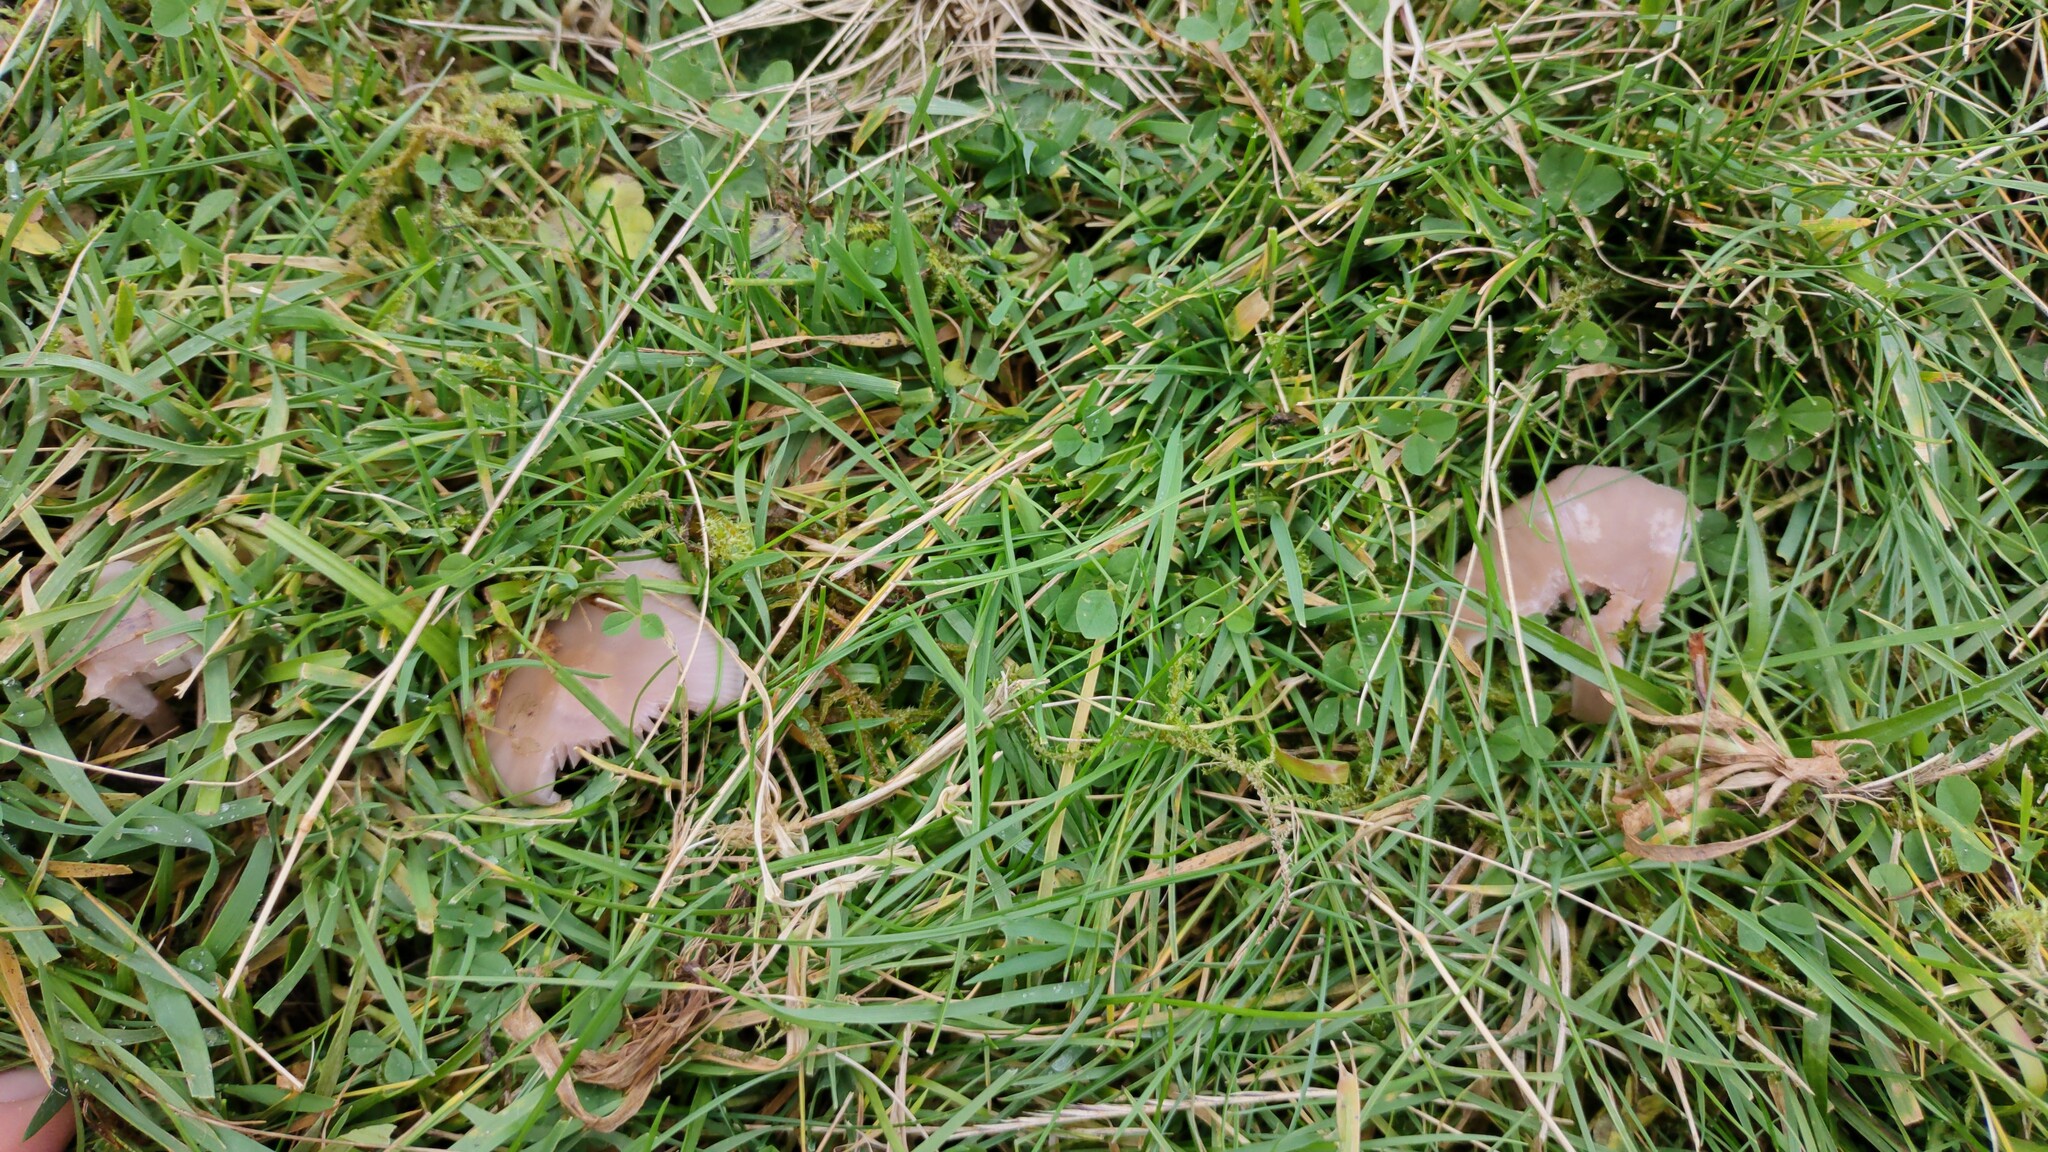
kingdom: Fungi
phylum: Basidiomycota
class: Agaricomycetes
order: Agaricales
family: Tricholomataceae
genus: Collybia
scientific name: Collybia
